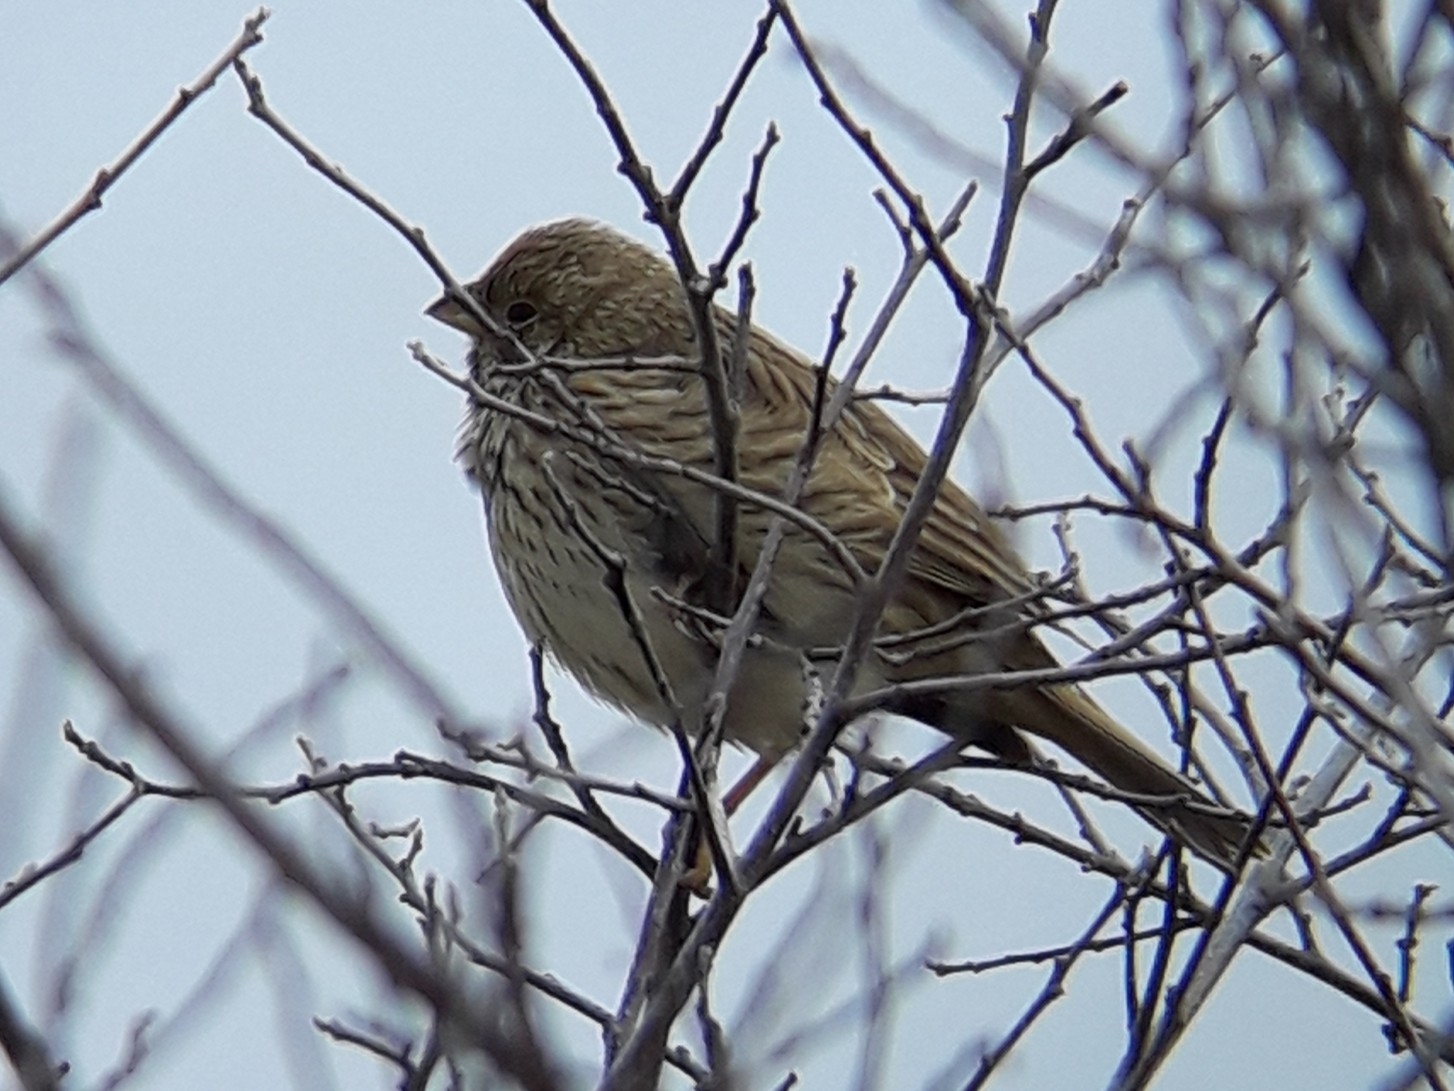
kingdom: Animalia
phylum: Chordata
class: Aves
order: Passeriformes
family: Emberizidae
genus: Emberiza
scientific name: Emberiza calandra
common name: Corn bunting
